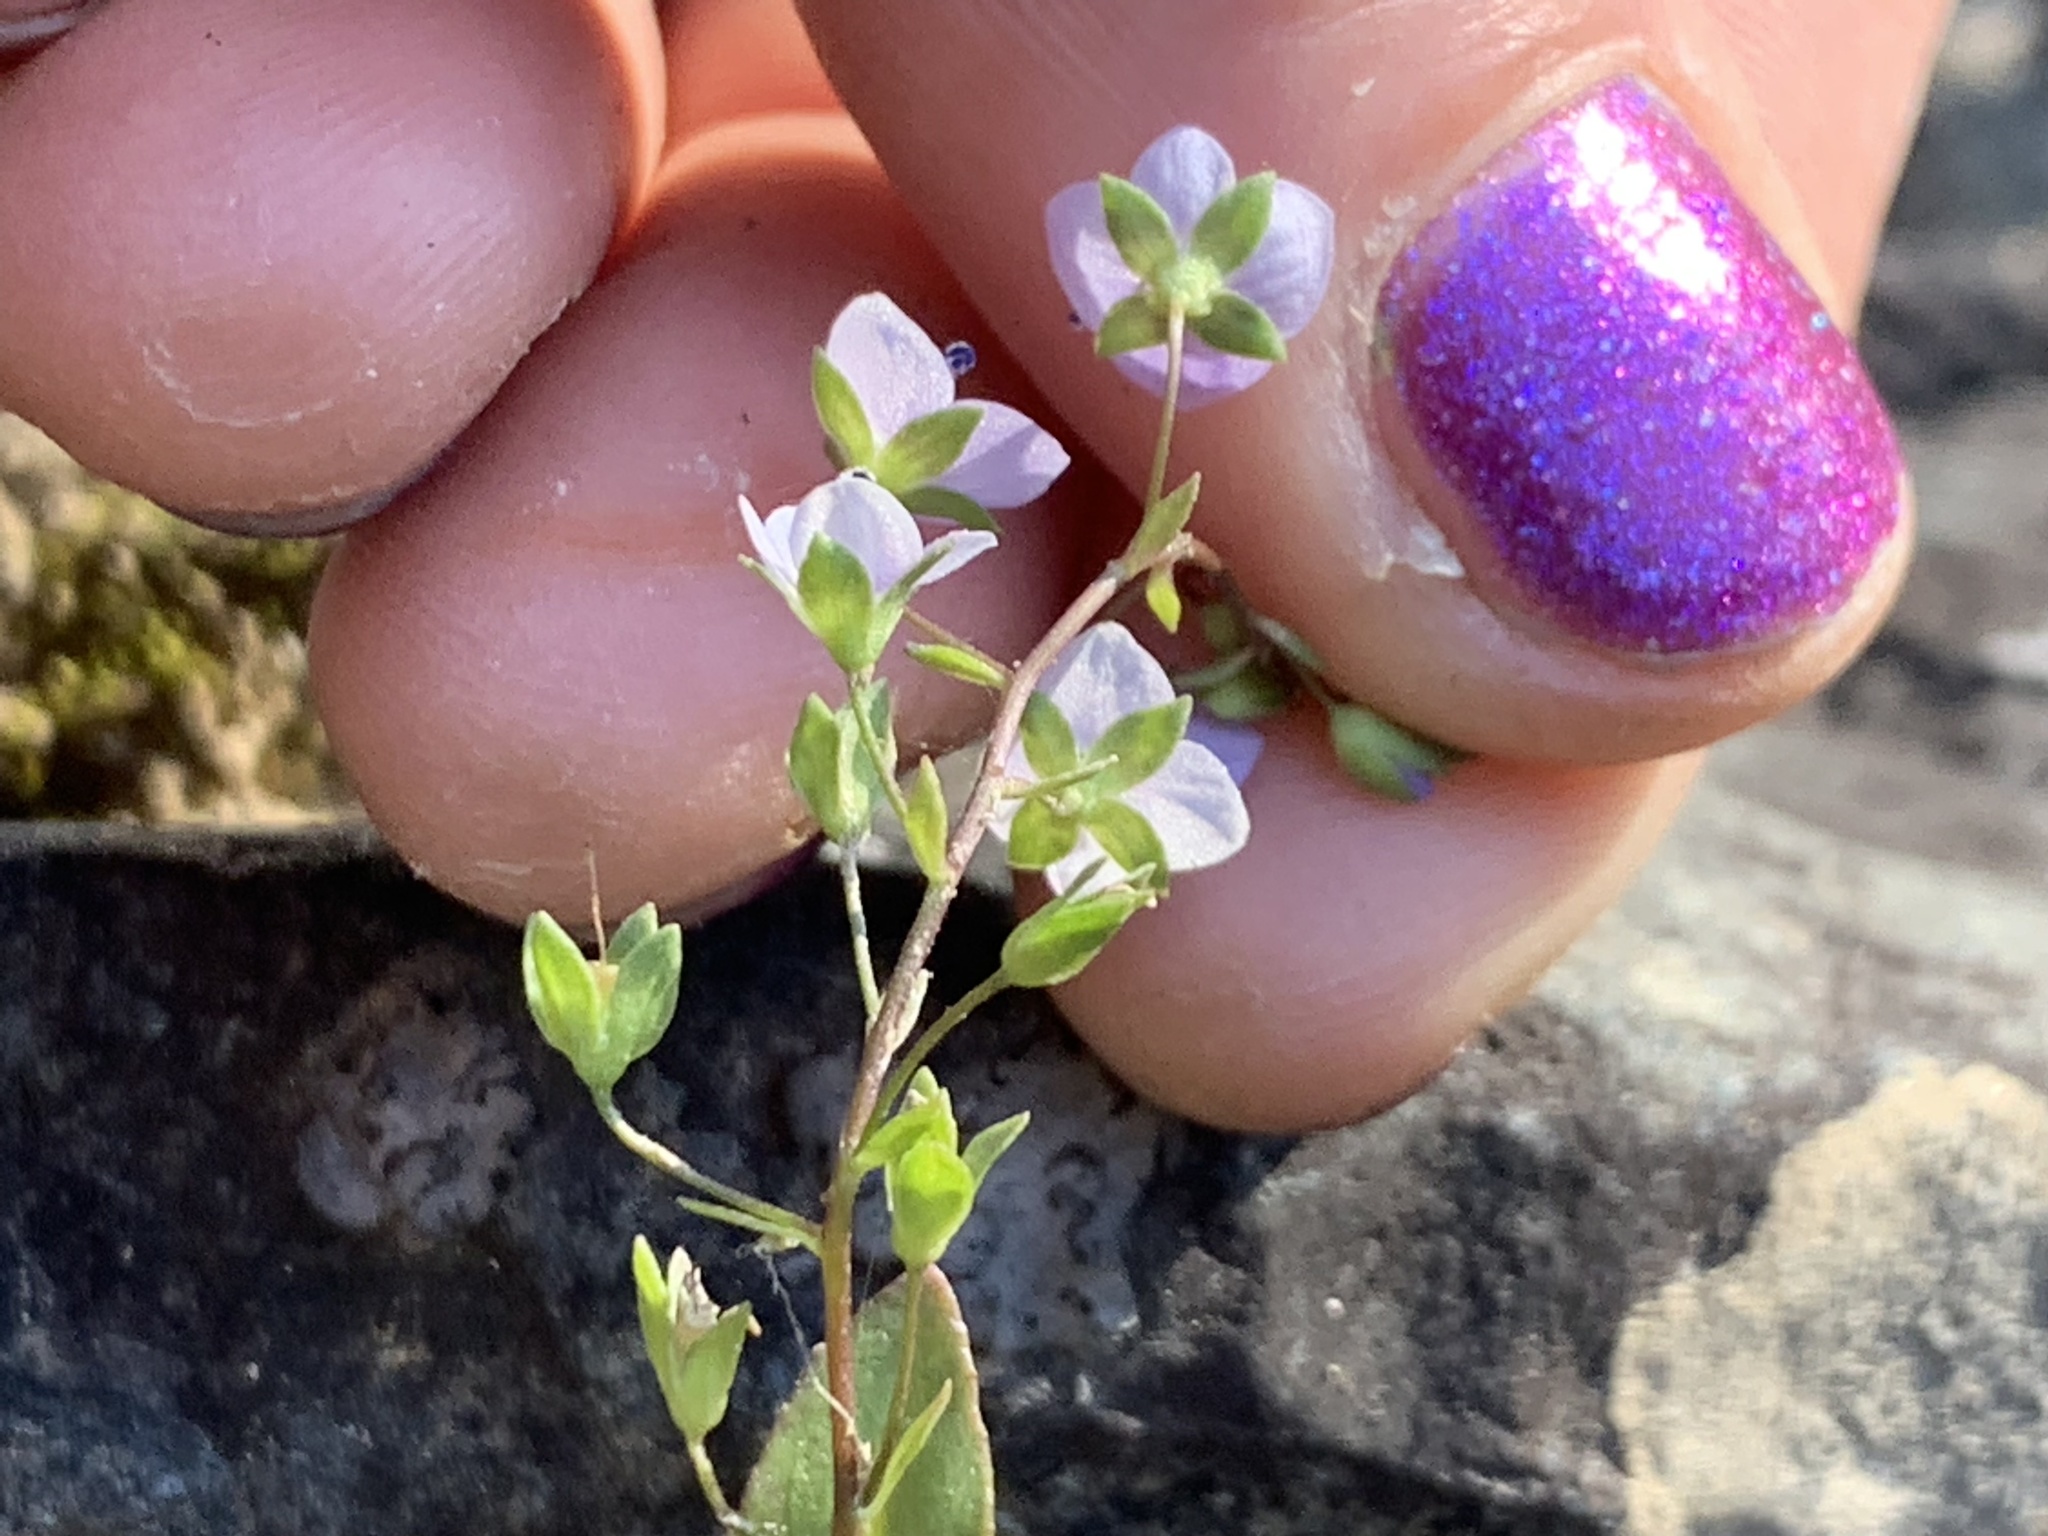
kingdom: Plantae
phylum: Tracheophyta
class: Magnoliopsida
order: Lamiales
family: Plantaginaceae
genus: Veronica
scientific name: Veronica anagallis-aquatica
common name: Water speedwell
